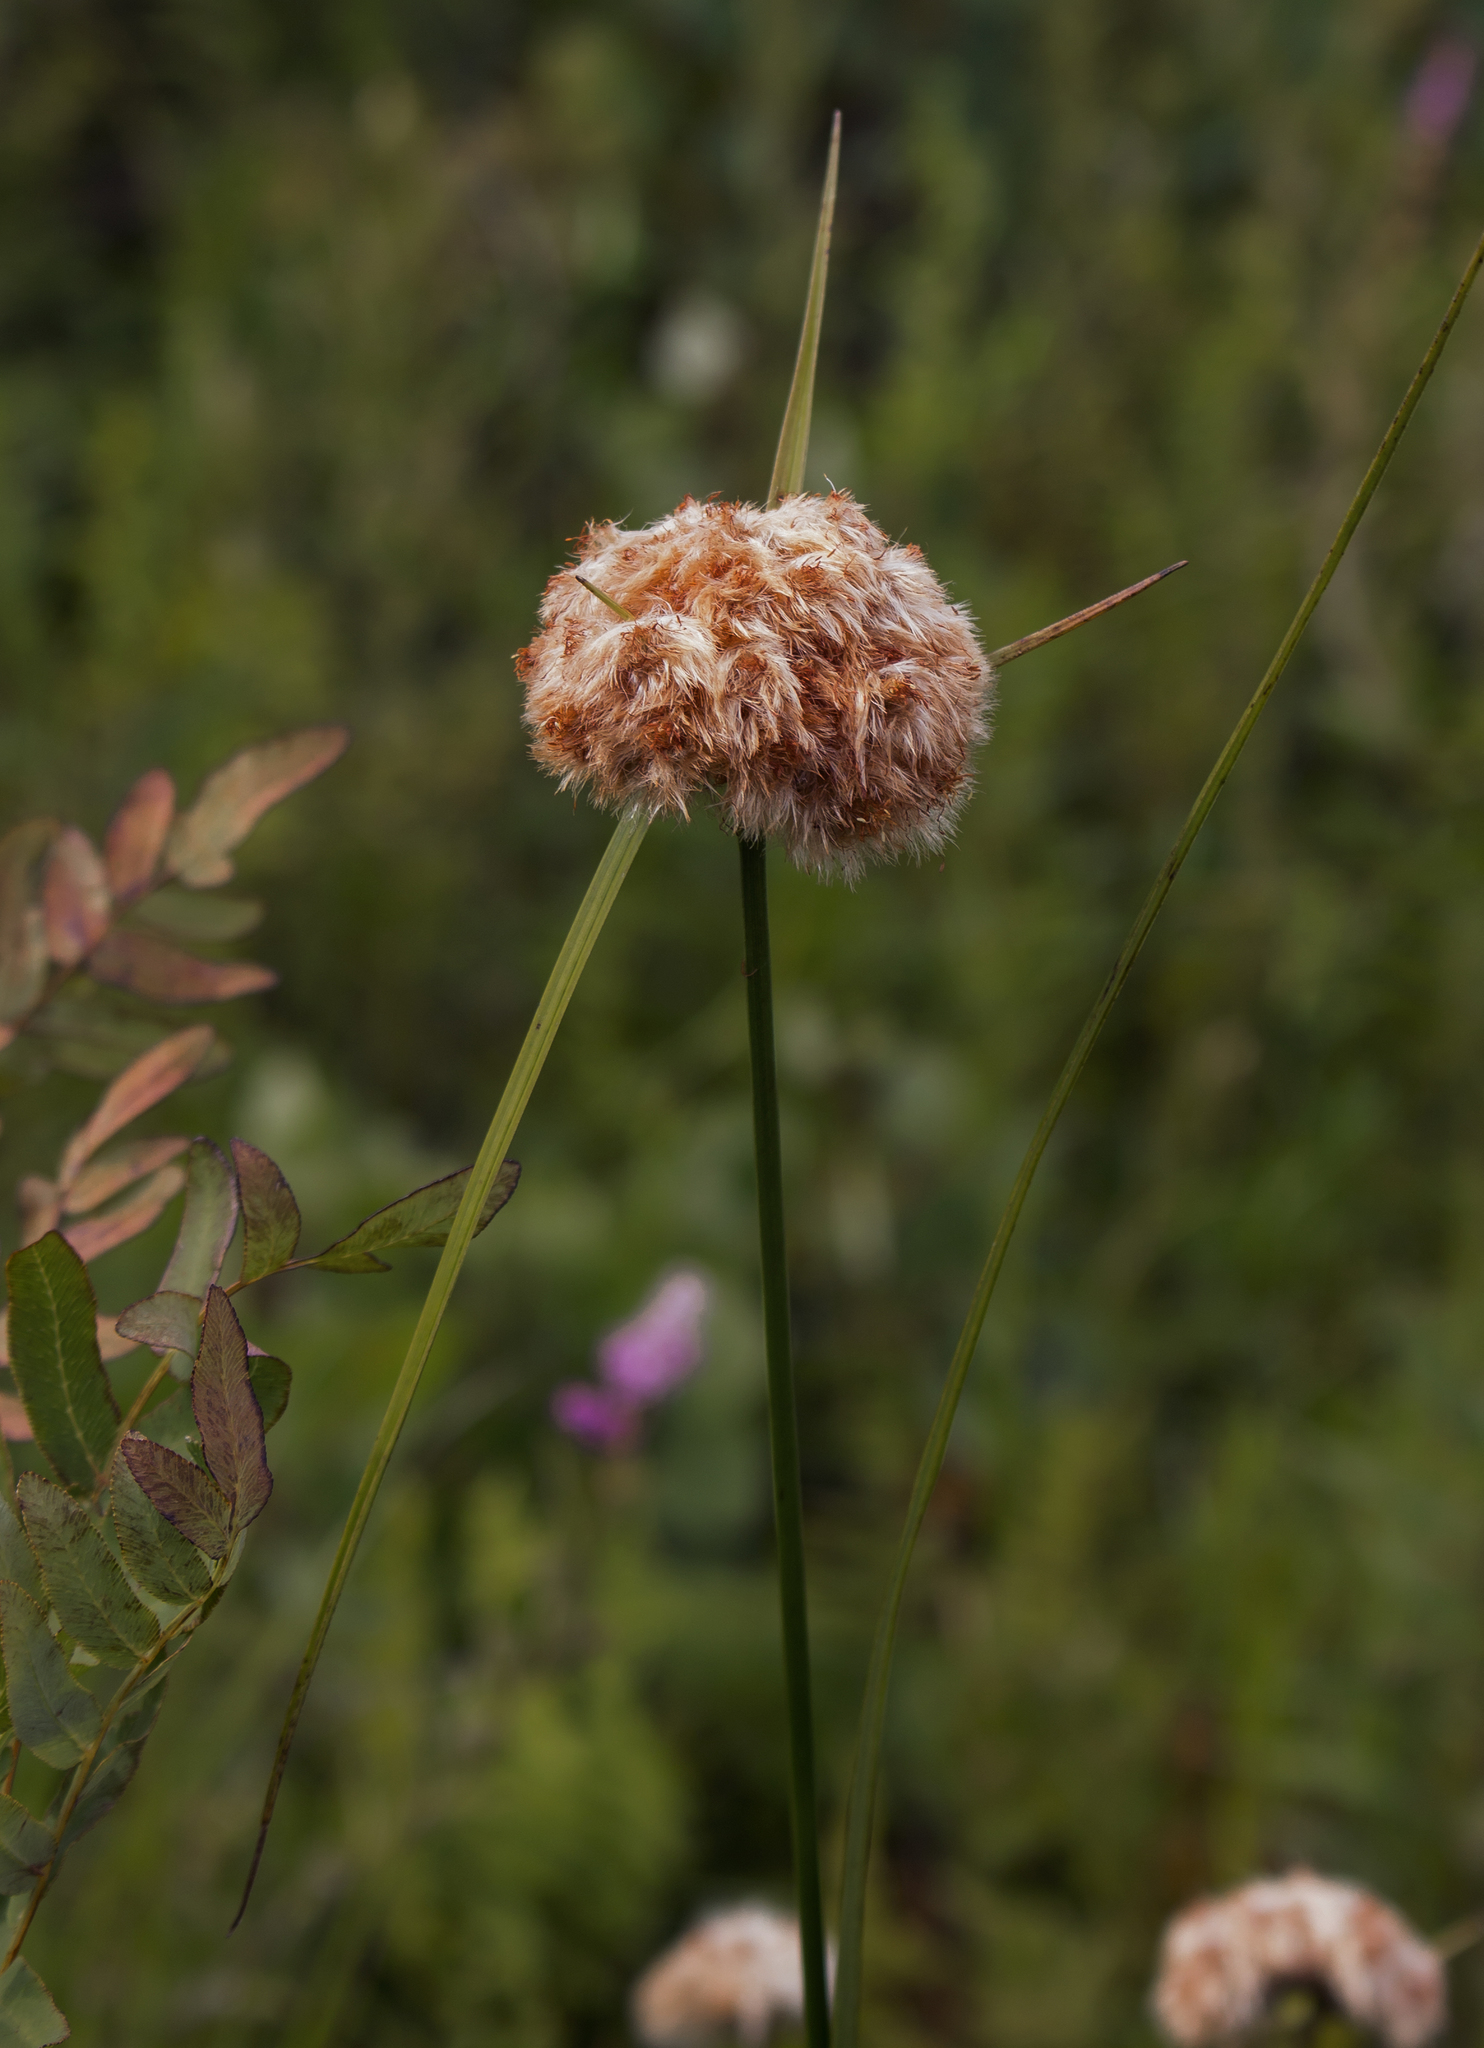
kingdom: Plantae
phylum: Tracheophyta
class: Liliopsida
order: Poales
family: Cyperaceae
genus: Eriophorum
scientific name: Eriophorum virginicum
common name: Tawny cottongrass
